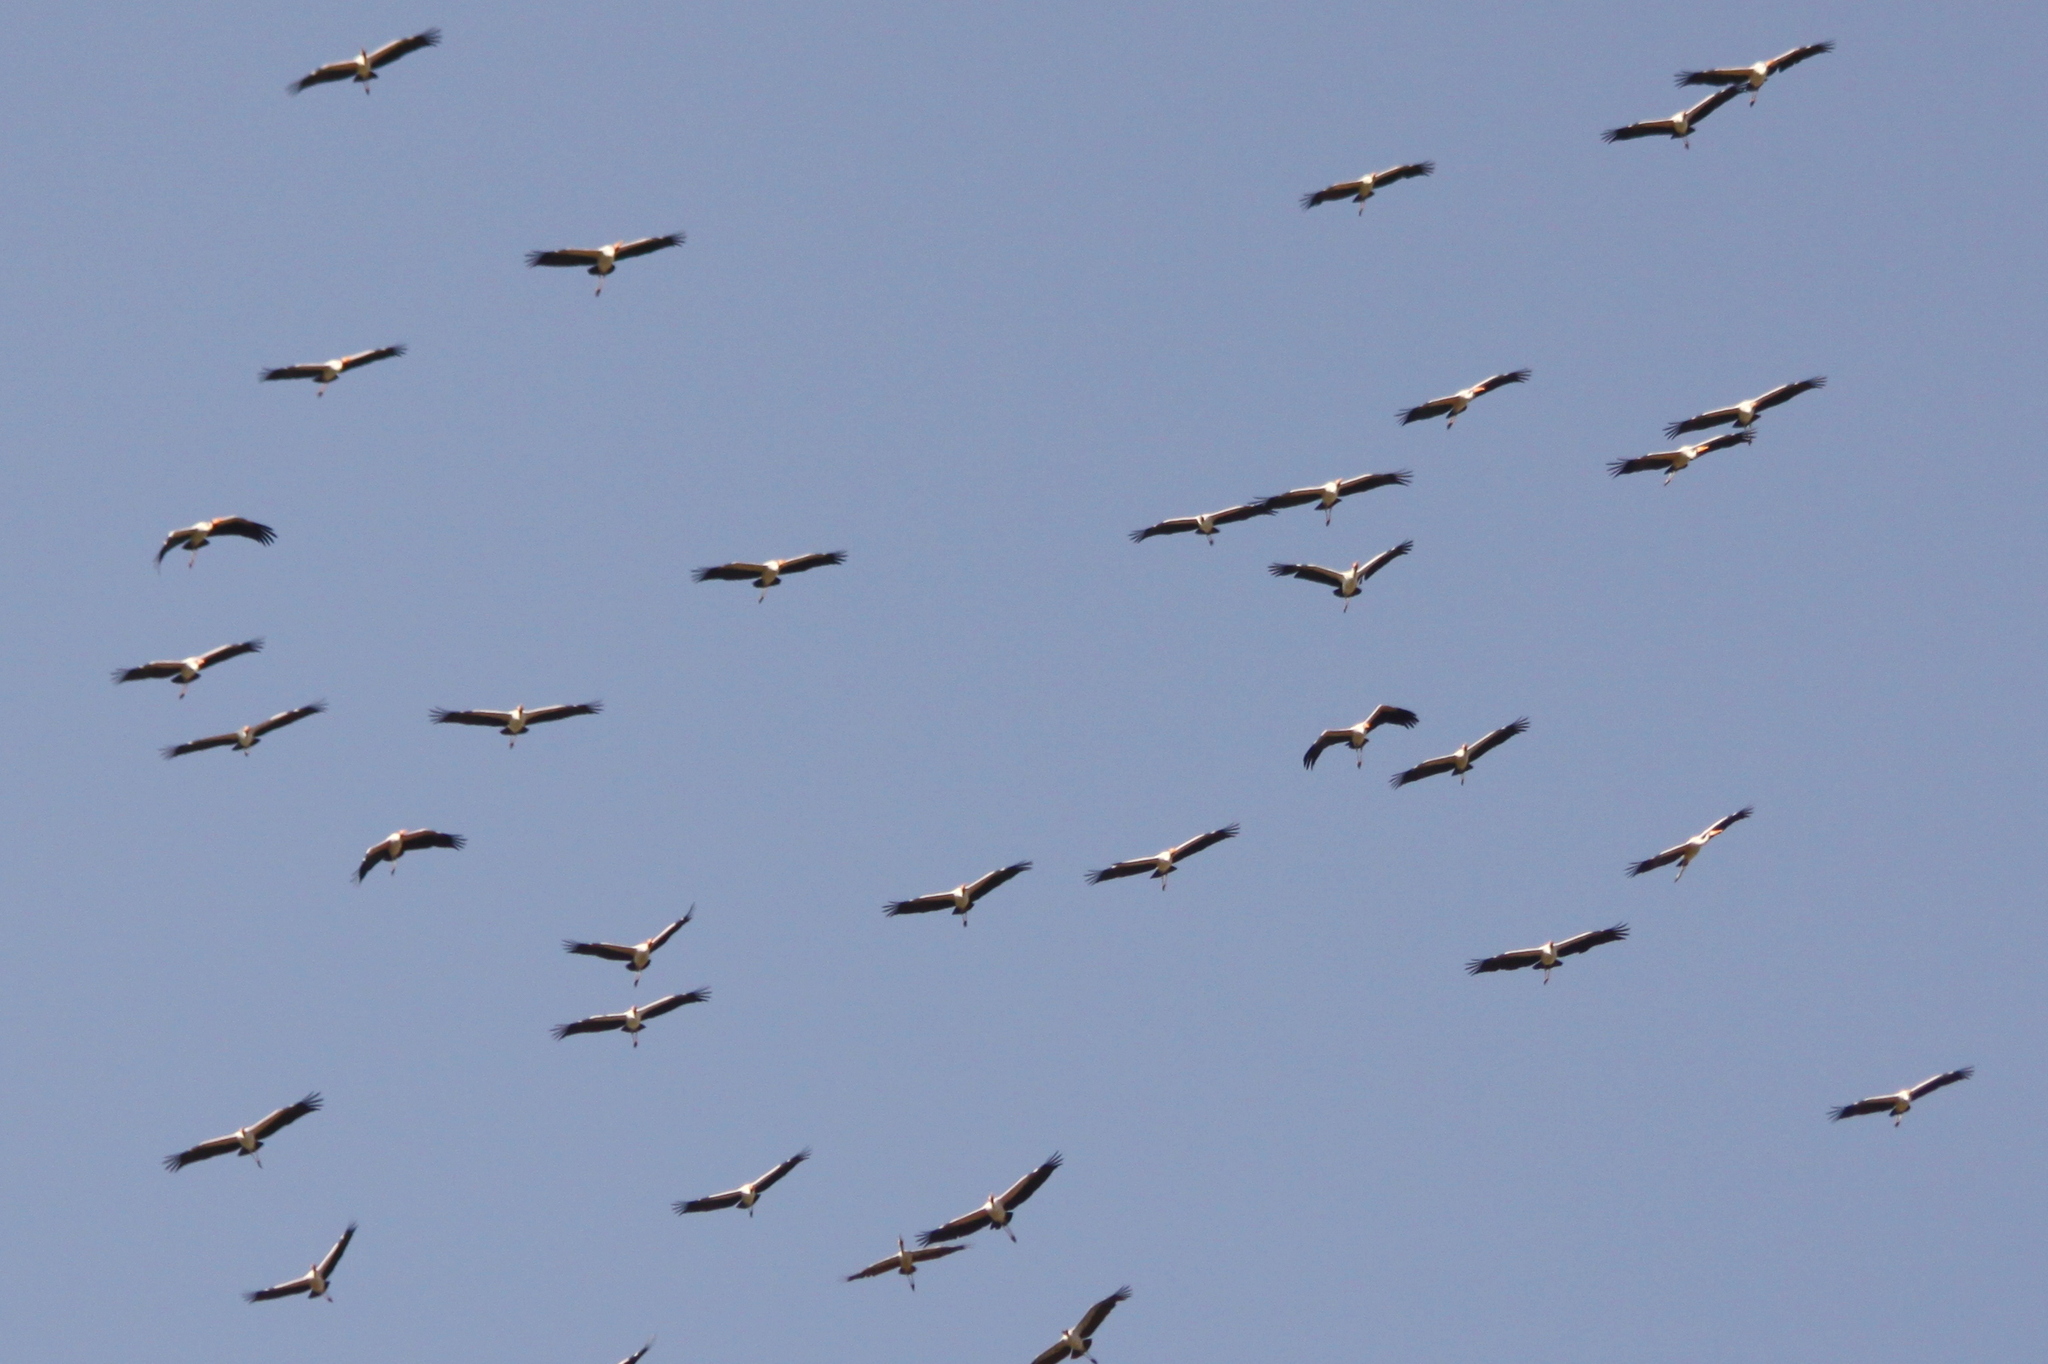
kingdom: Animalia
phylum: Chordata
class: Aves
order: Ciconiiformes
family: Ciconiidae
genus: Ciconia
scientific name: Ciconia ciconia
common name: White stork
